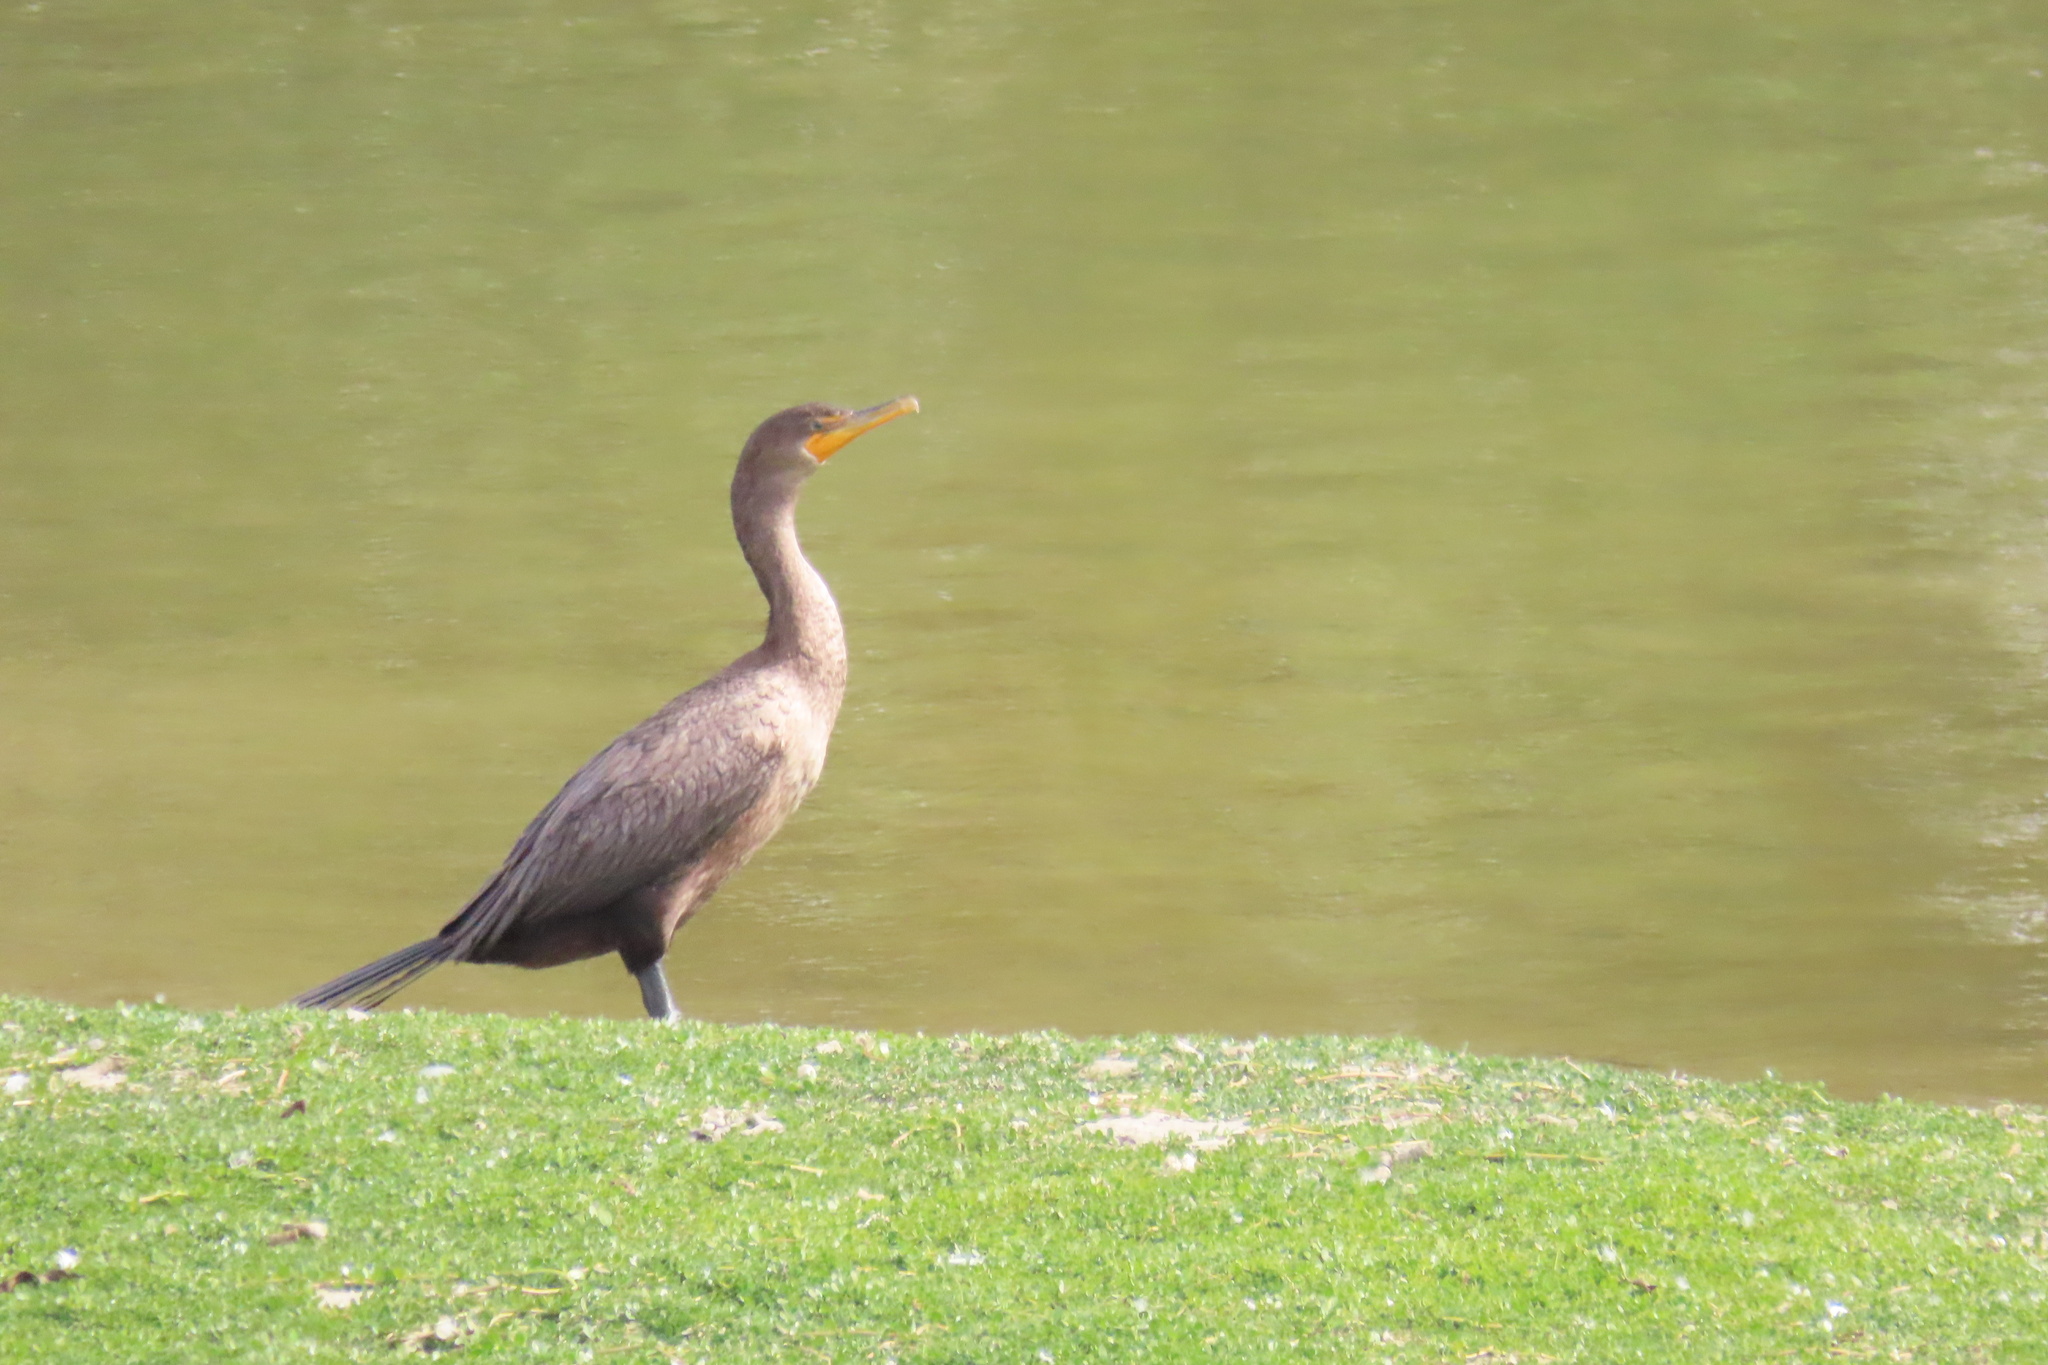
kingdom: Animalia
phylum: Chordata
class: Aves
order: Suliformes
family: Phalacrocoracidae
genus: Phalacrocorax
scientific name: Phalacrocorax auritus
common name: Double-crested cormorant
